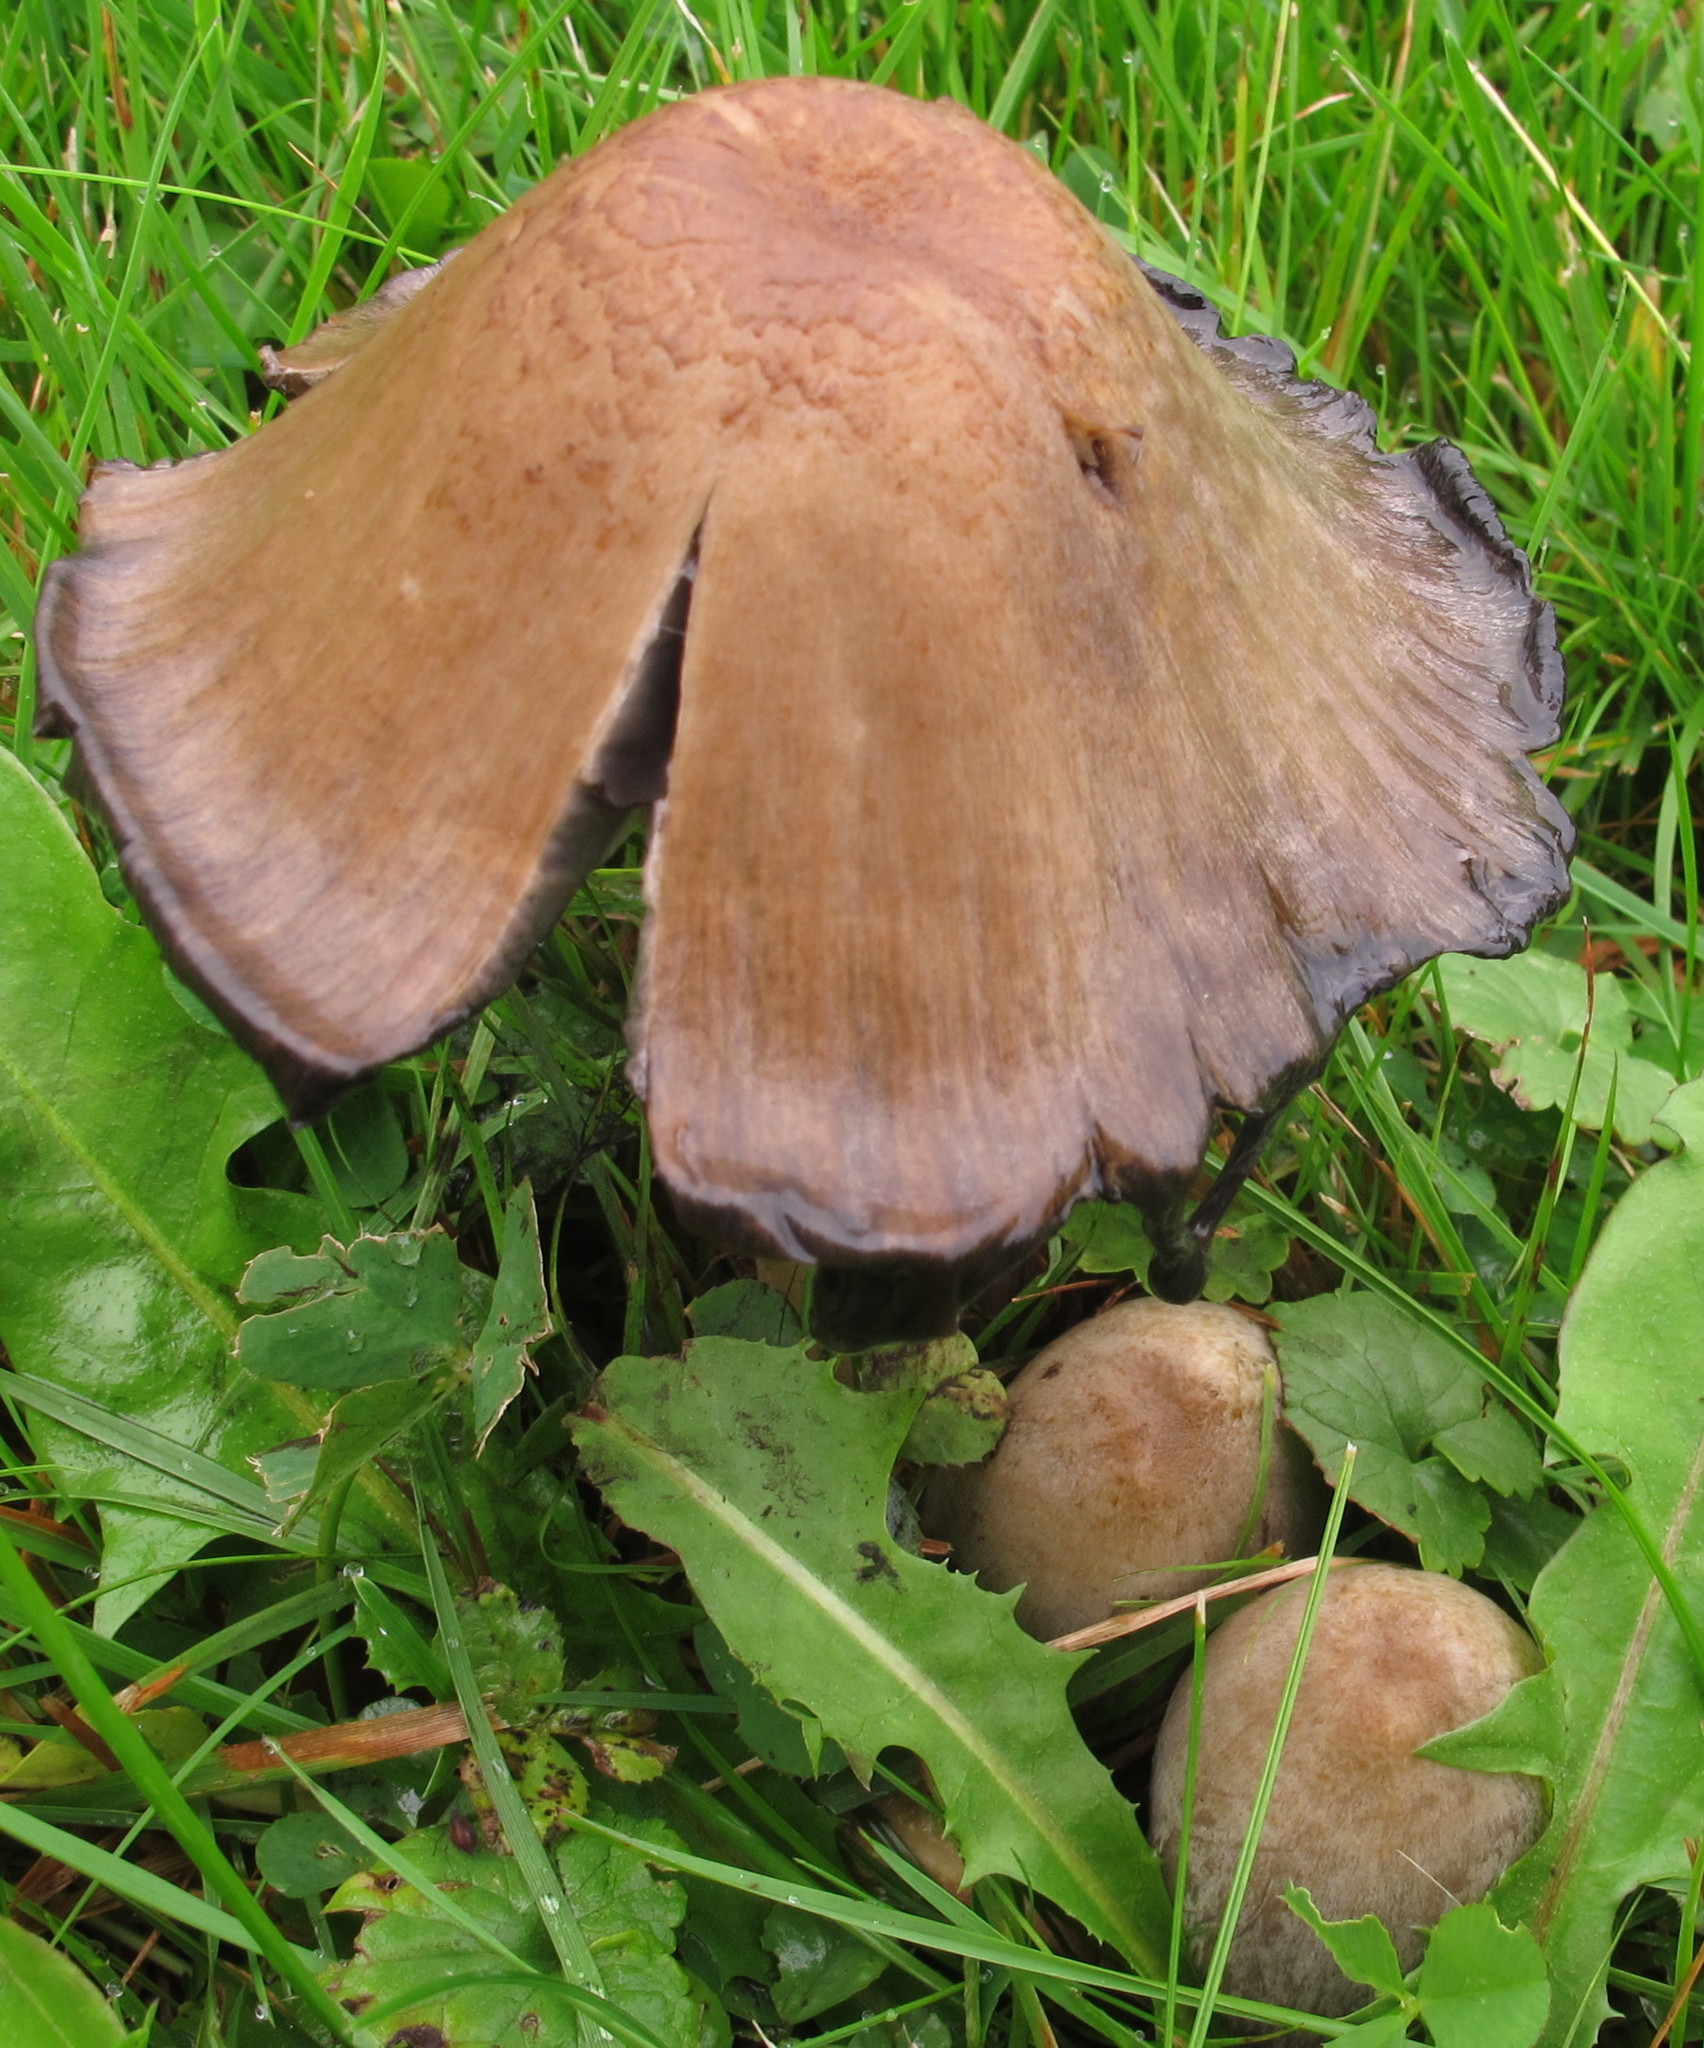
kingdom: Fungi
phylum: Basidiomycota
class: Agaricomycetes
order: Agaricales
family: Psathyrellaceae
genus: Coprinopsis
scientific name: Coprinopsis atramentaria
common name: Common ink-cap
